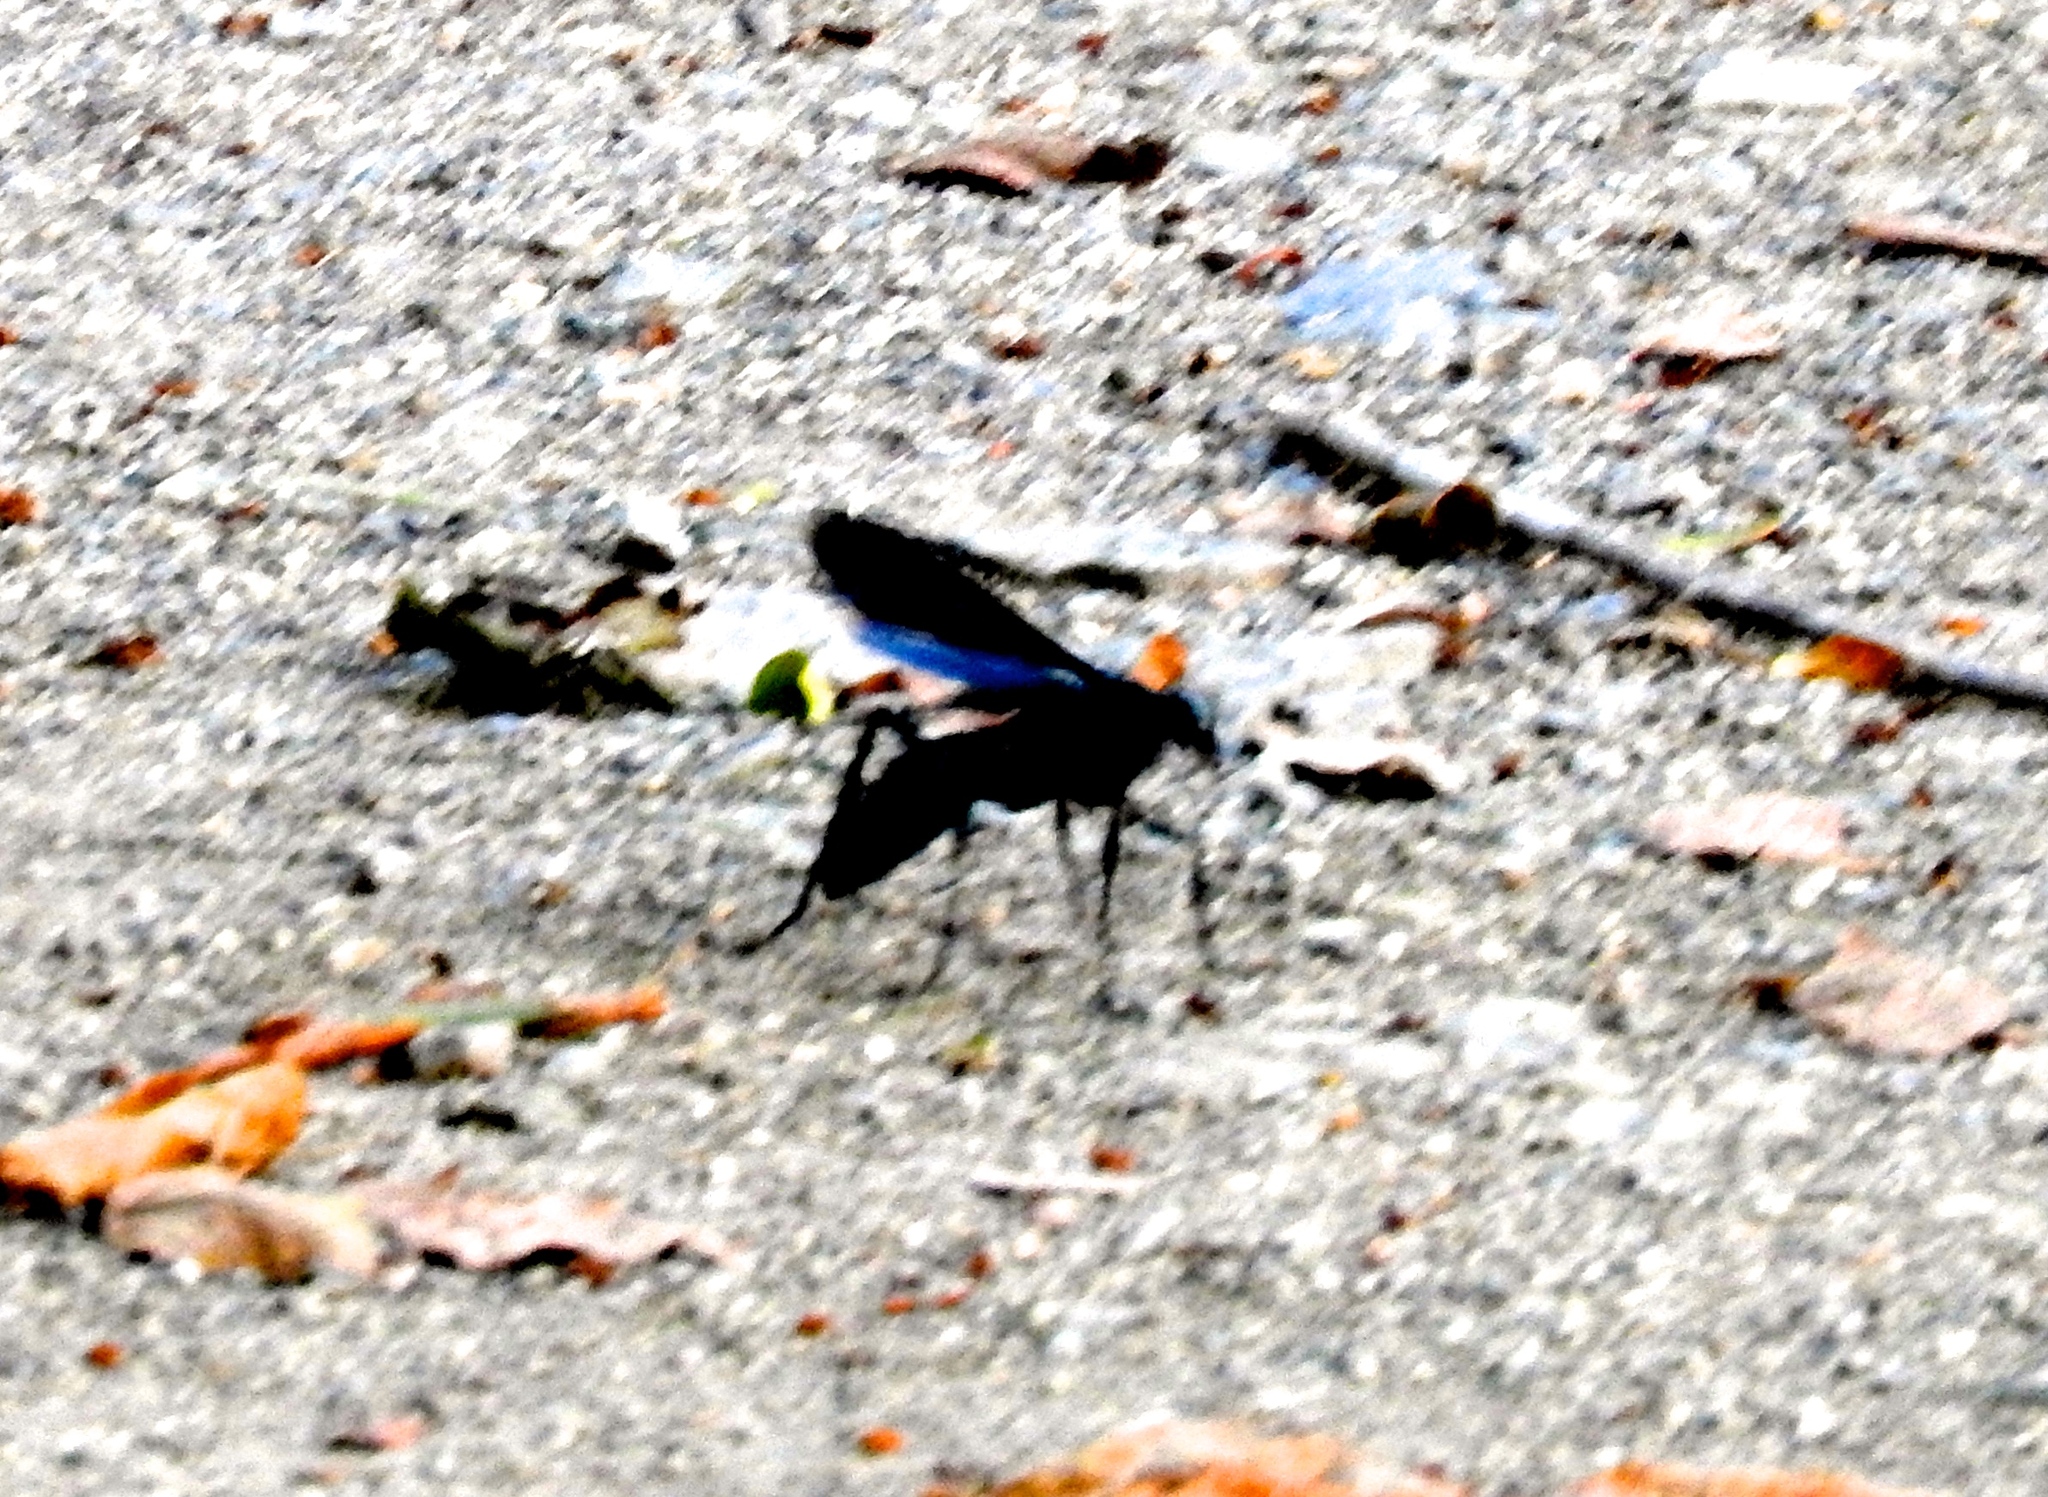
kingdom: Animalia
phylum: Arthropoda
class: Insecta
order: Hymenoptera
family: Pompilidae
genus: Pepsis
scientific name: Pepsis mexicana
